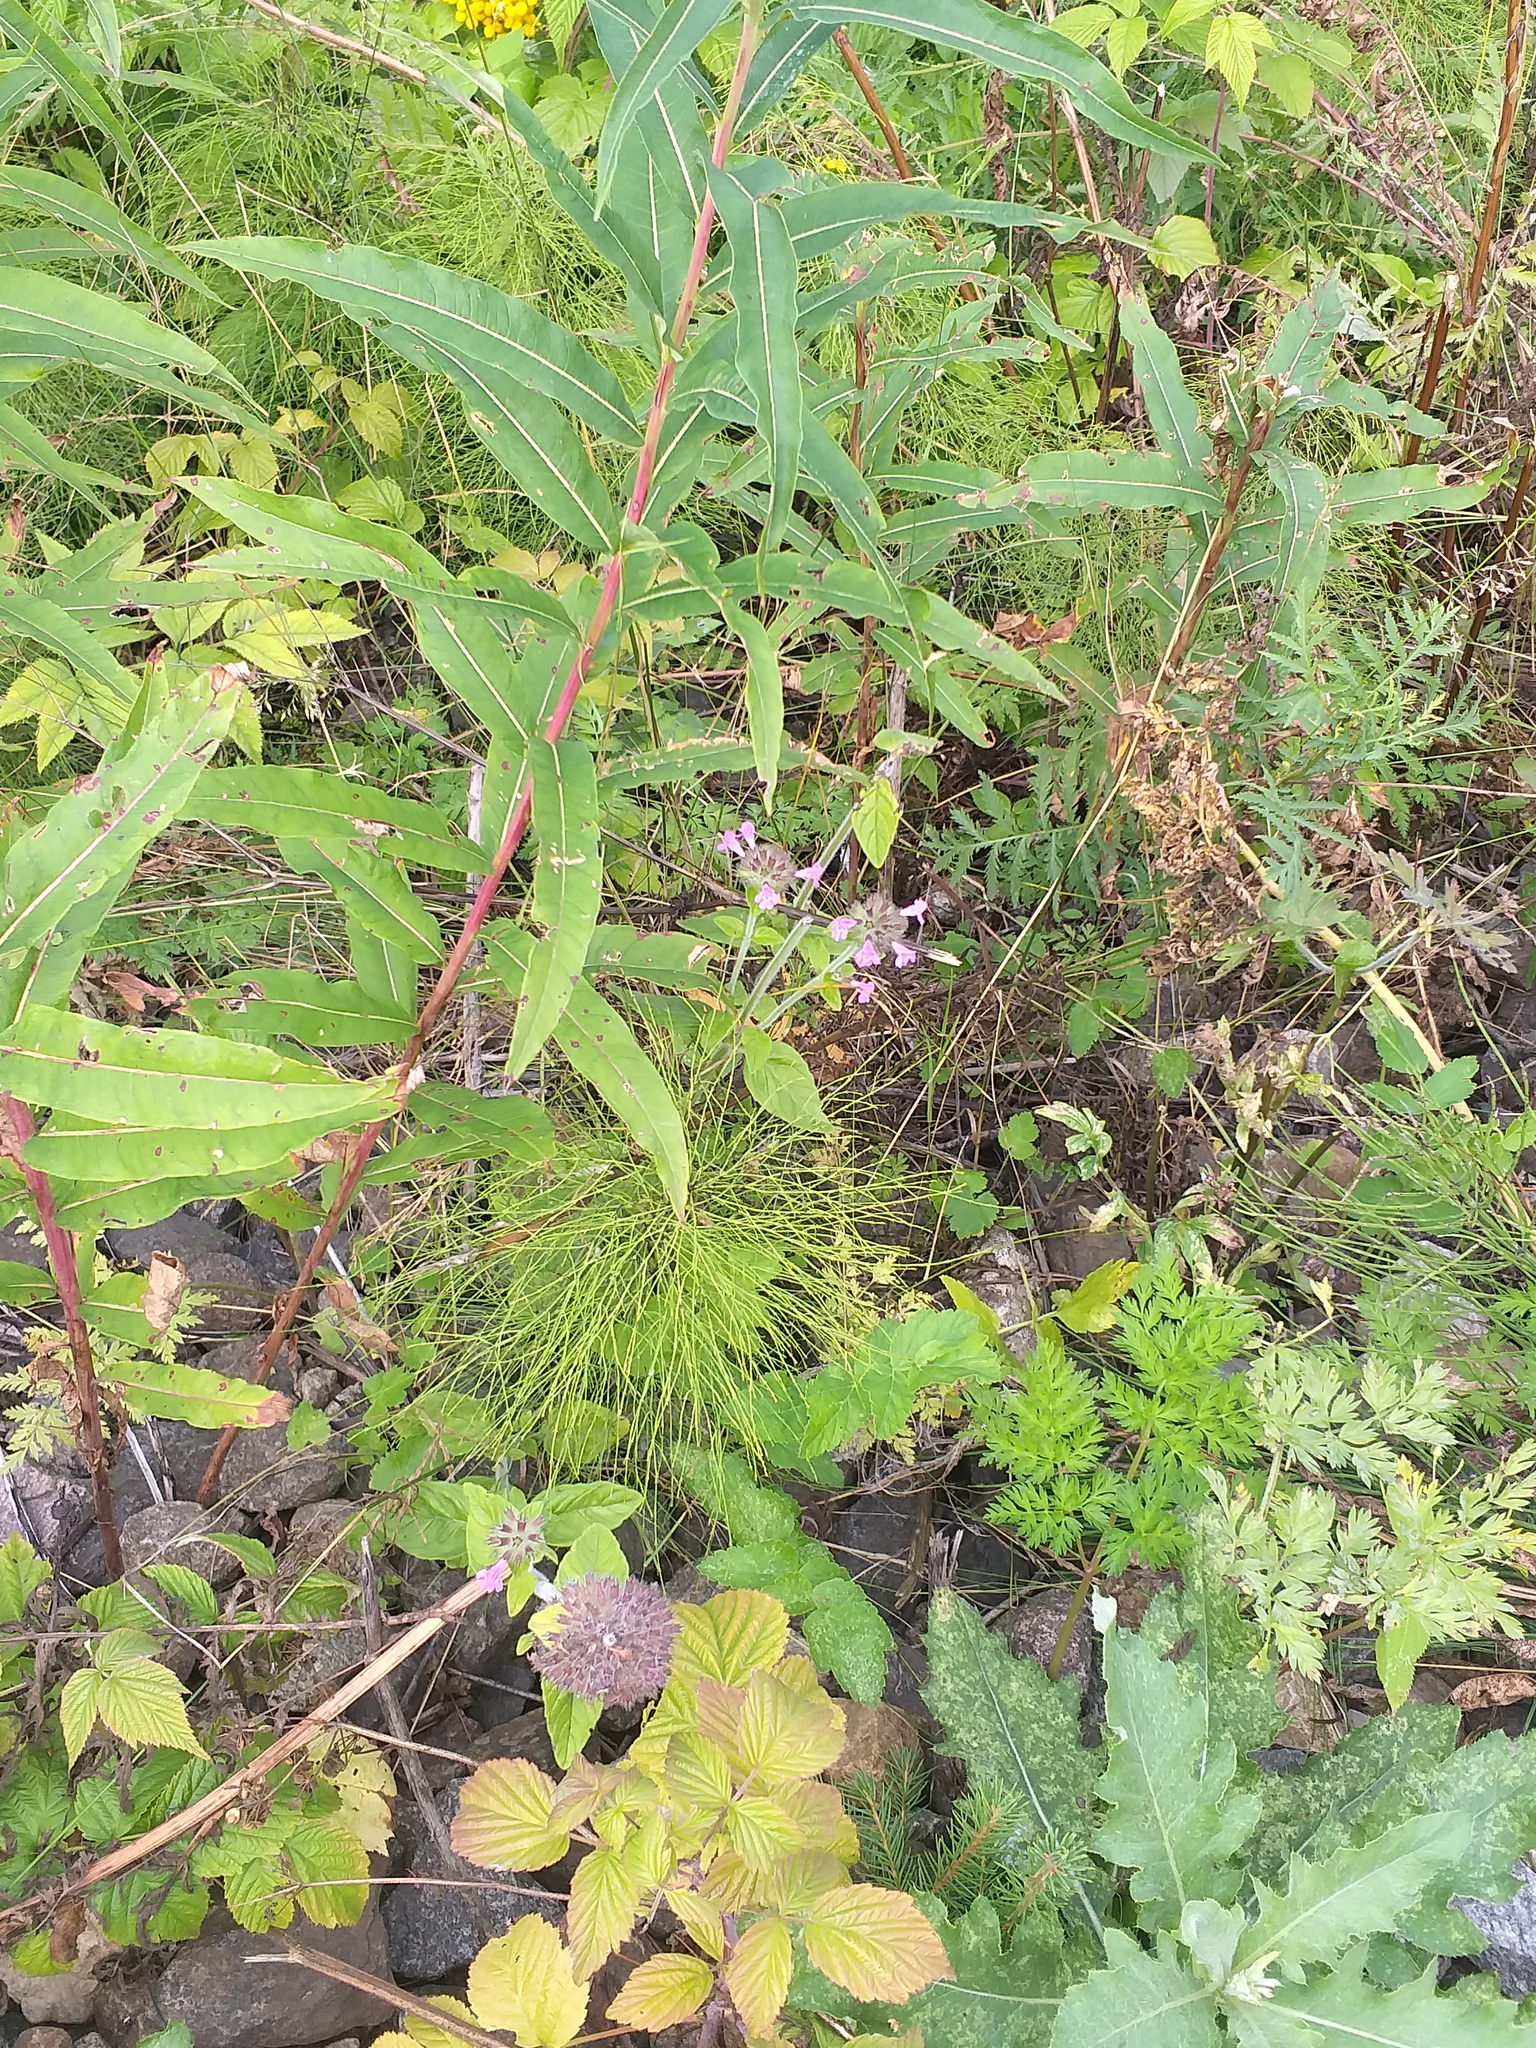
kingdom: Plantae
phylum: Tracheophyta
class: Polypodiopsida
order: Equisetales
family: Equisetaceae
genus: Equisetum
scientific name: Equisetum sylvaticum
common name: Wood horsetail
